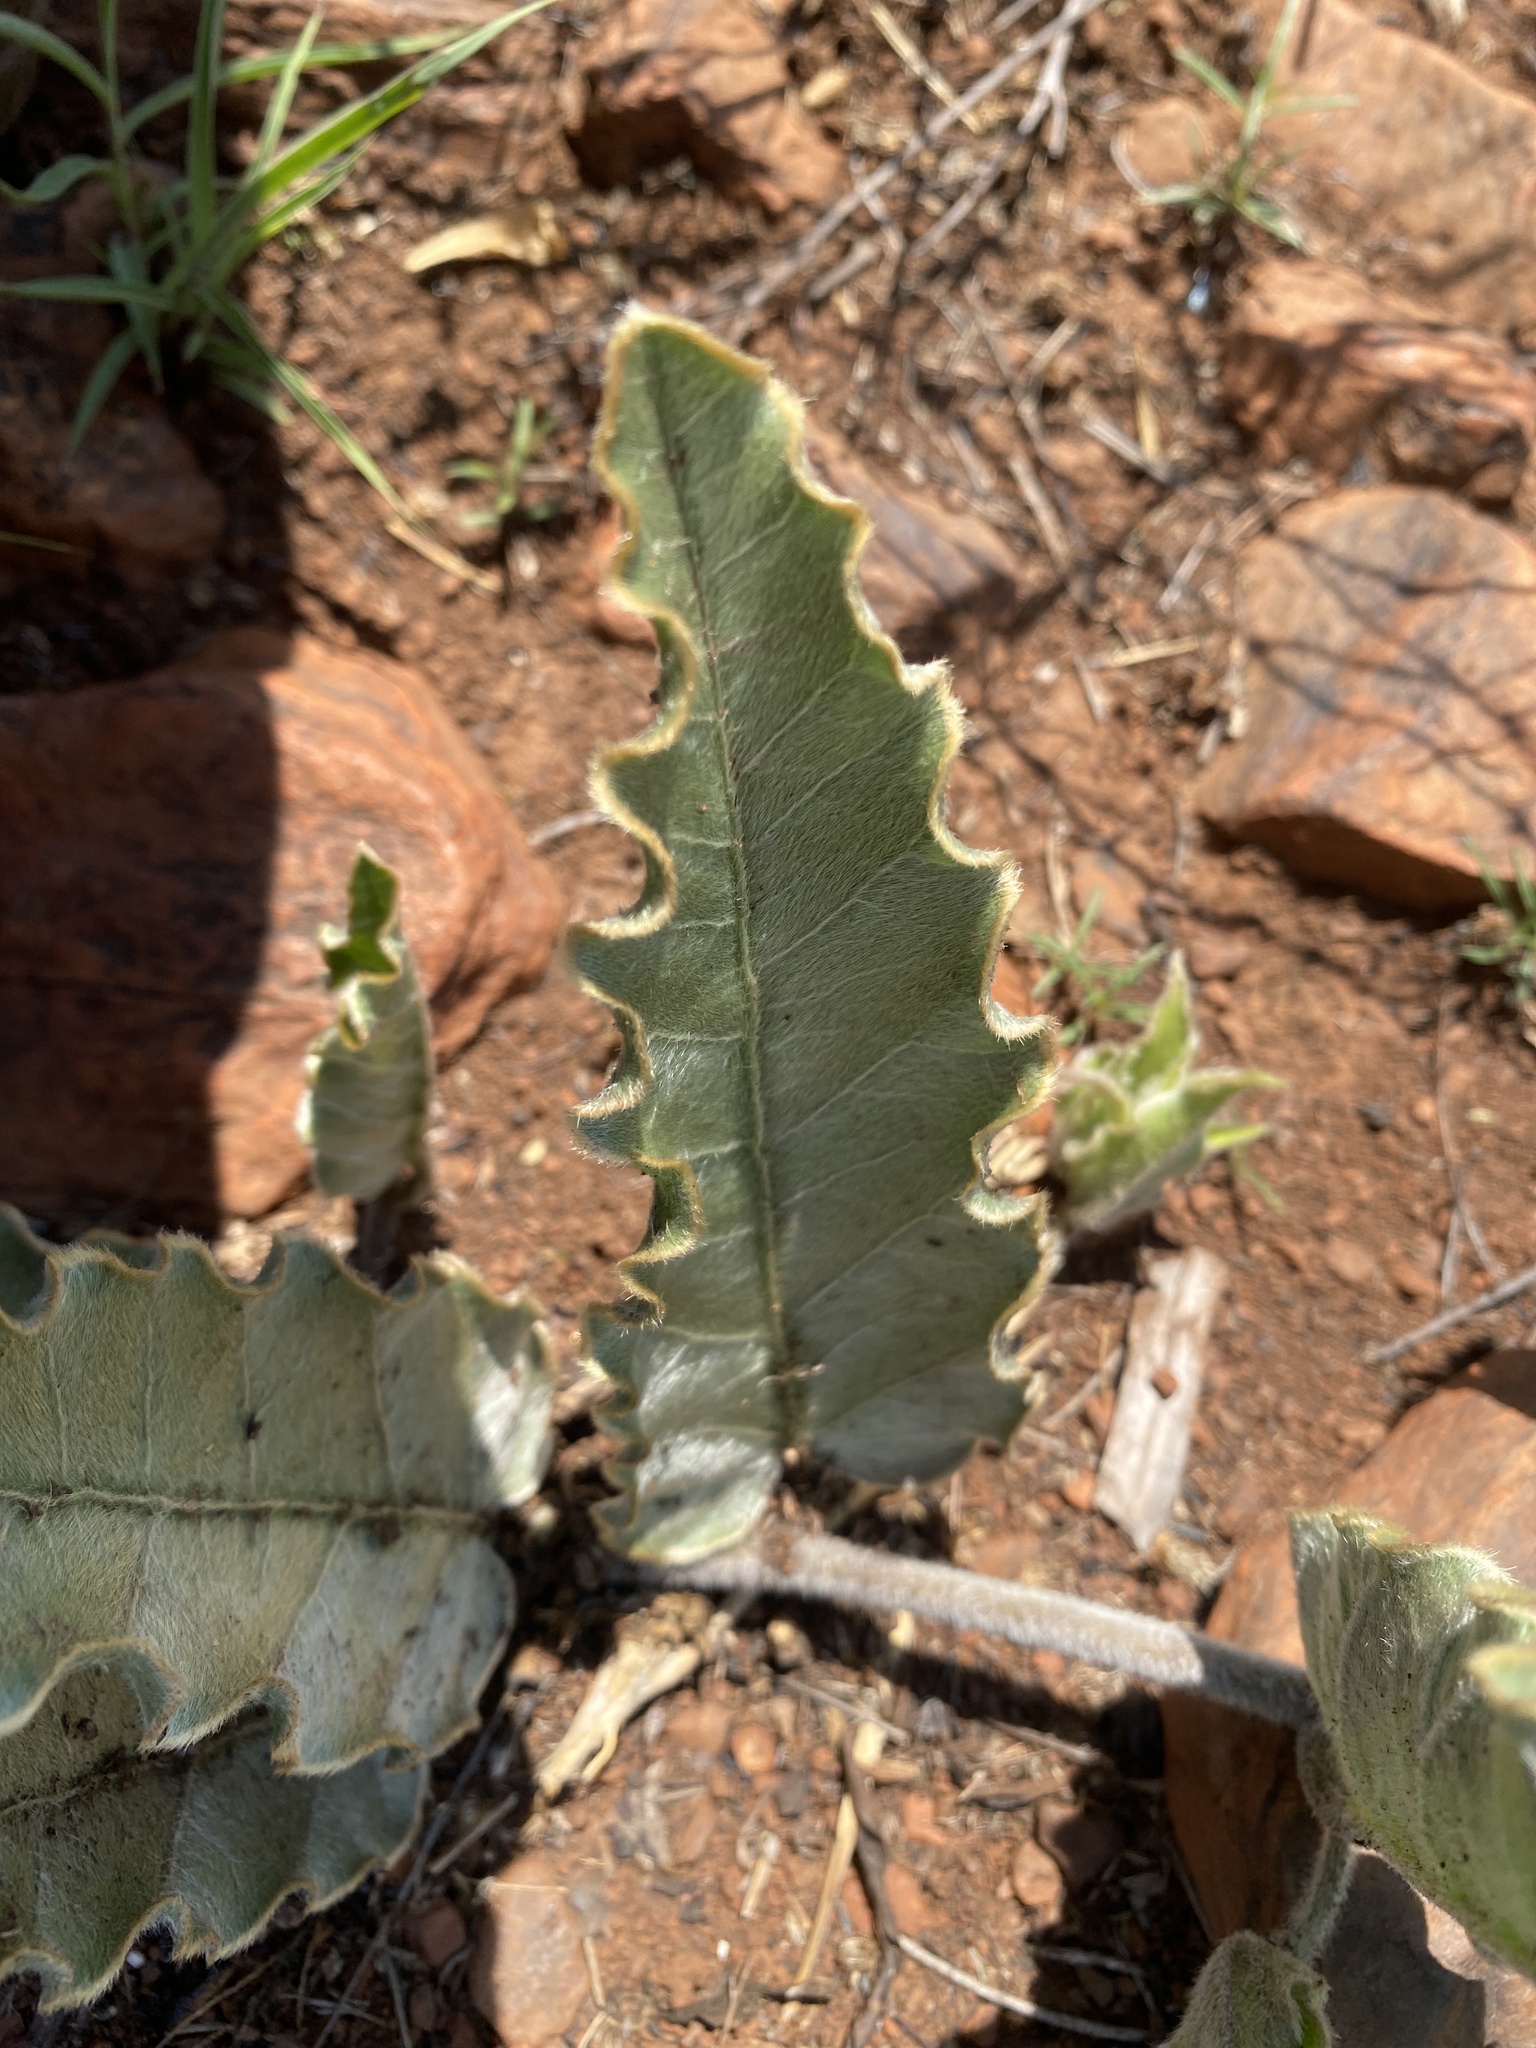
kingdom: Plantae
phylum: Tracheophyta
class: Magnoliopsida
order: Solanales
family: Convolvulaceae
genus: Ipomoea
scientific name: Ipomoea ommanneyi
